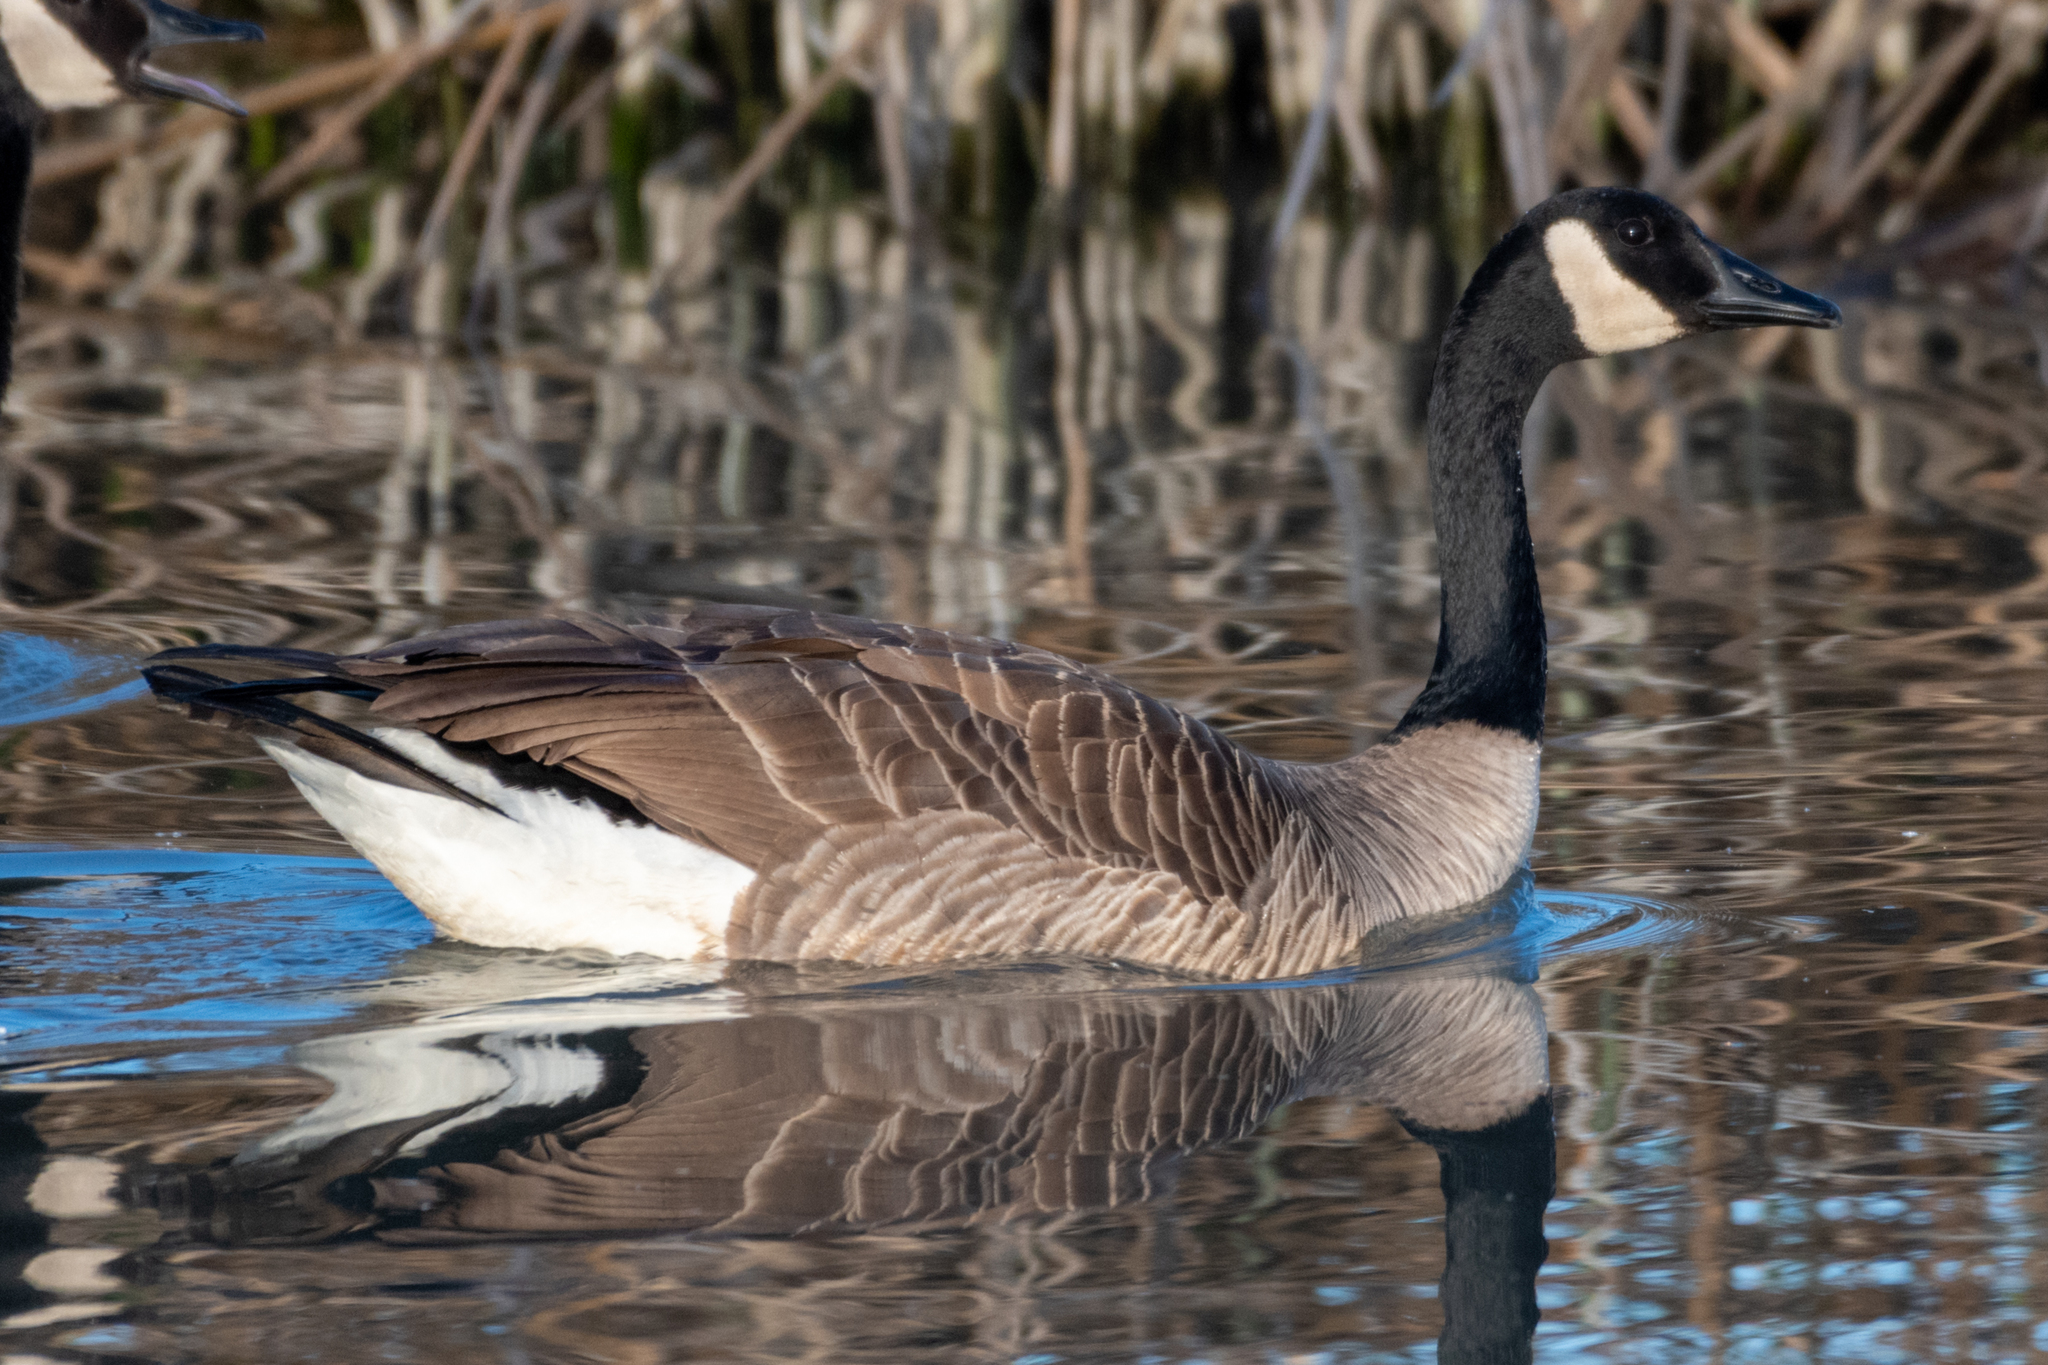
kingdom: Animalia
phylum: Chordata
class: Aves
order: Anseriformes
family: Anatidae
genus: Branta
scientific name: Branta canadensis
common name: Canada goose
